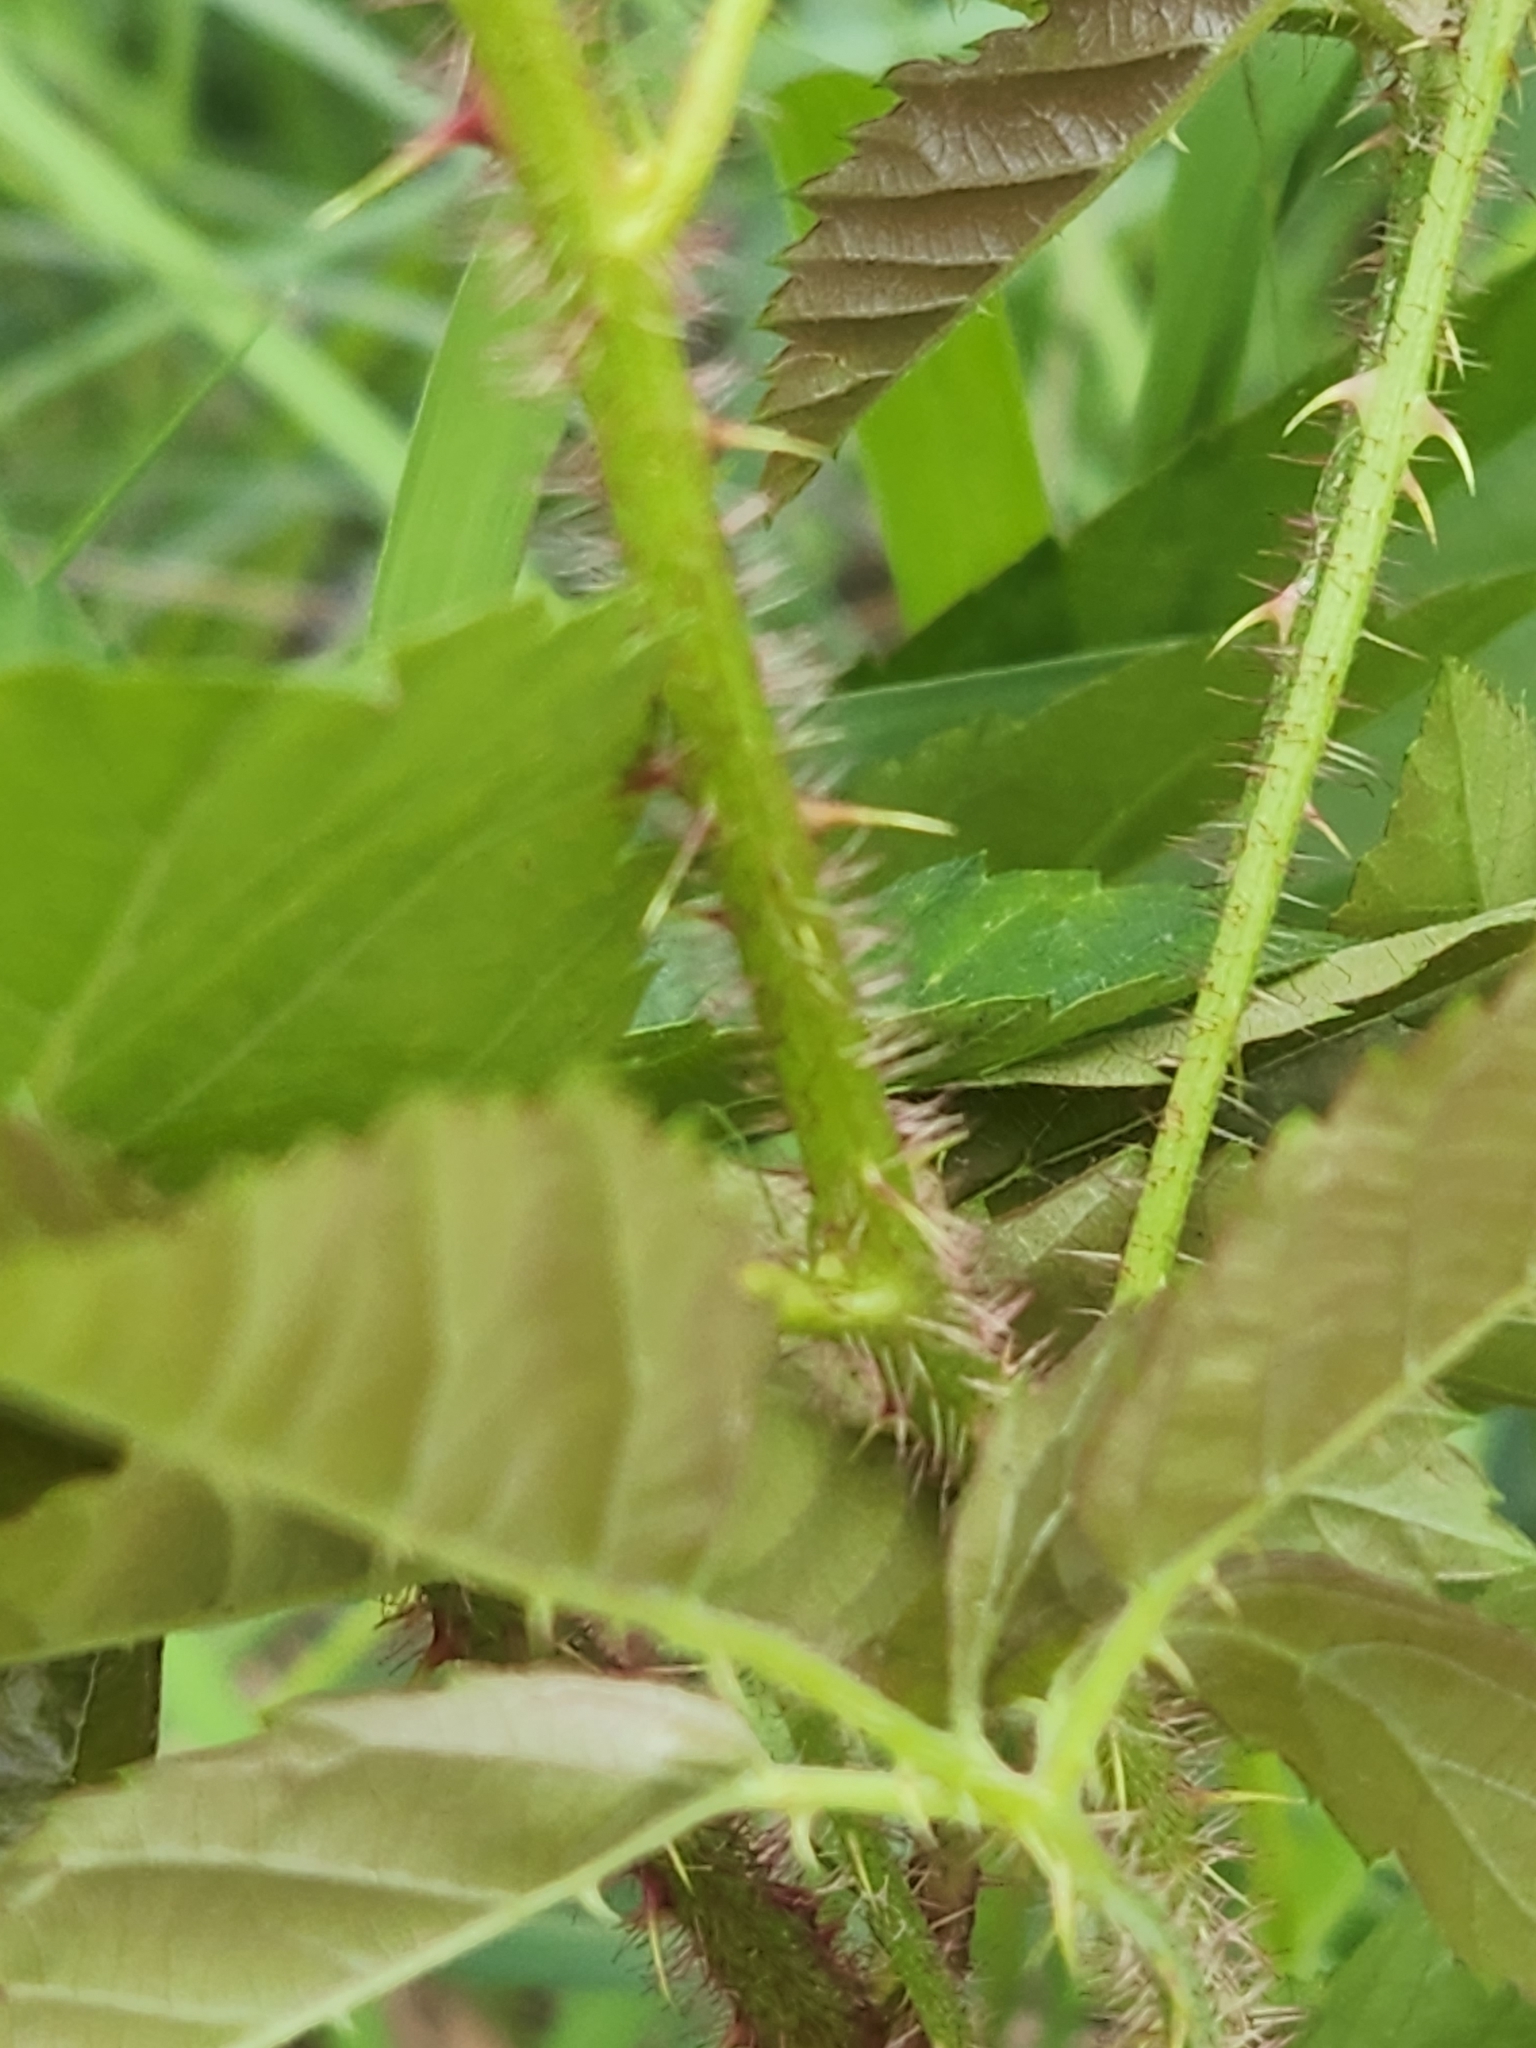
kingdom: Plantae
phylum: Tracheophyta
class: Magnoliopsida
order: Rosales
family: Rosaceae
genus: Rubus
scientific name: Rubus trivialis
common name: Southern dewberry
